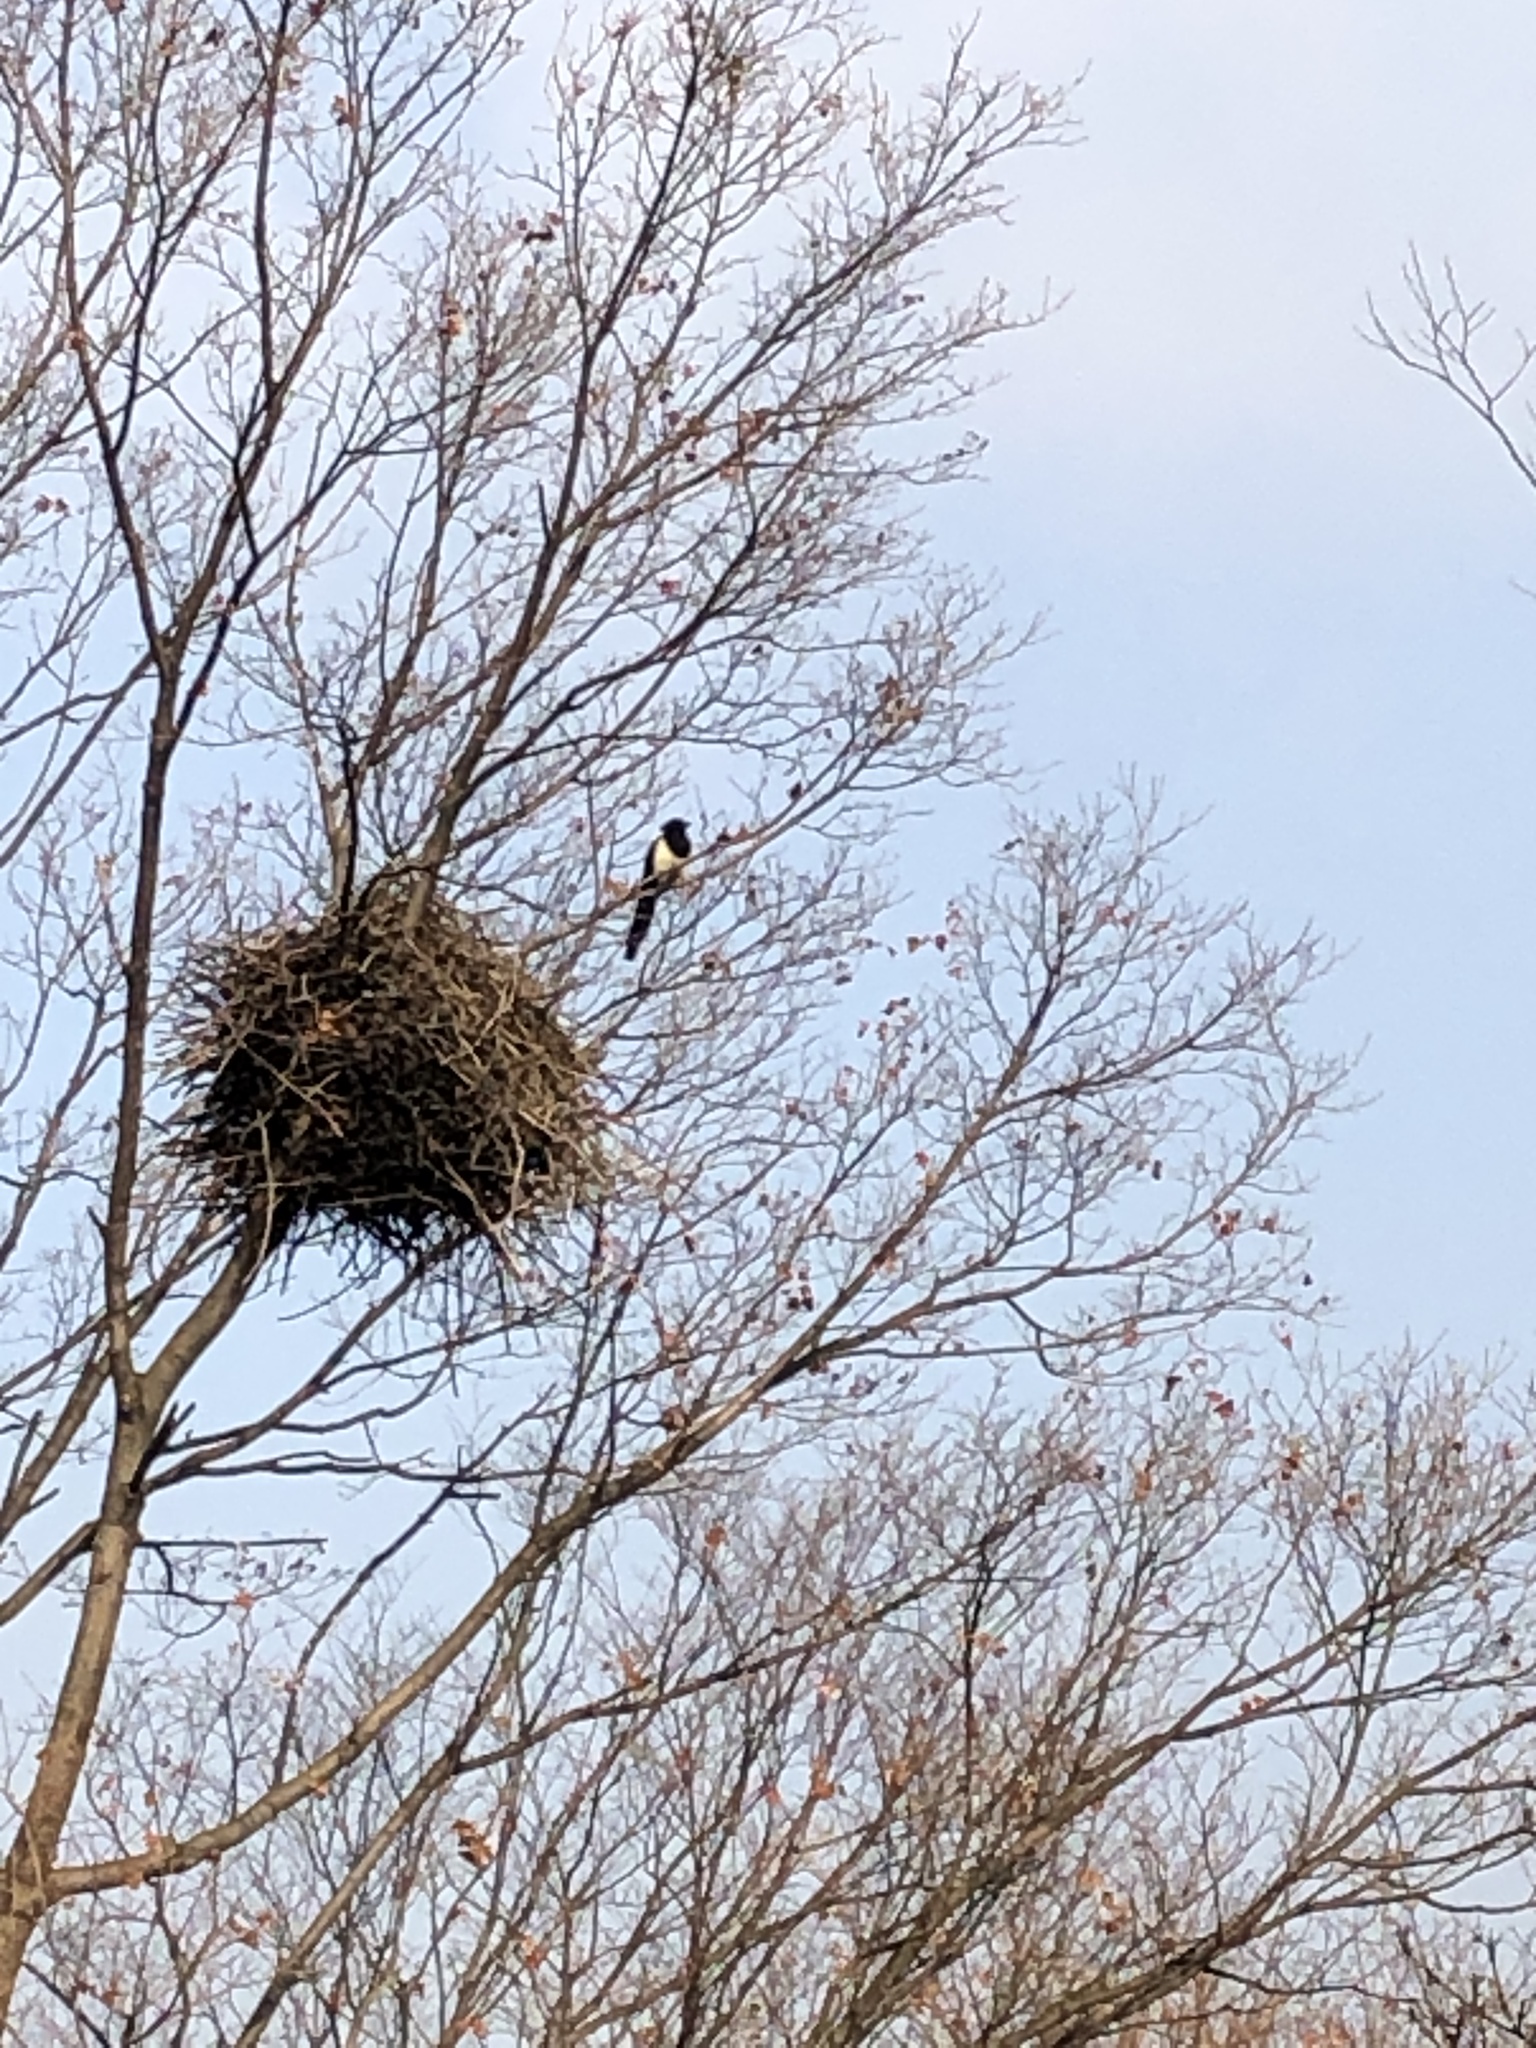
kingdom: Animalia
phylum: Chordata
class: Aves
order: Passeriformes
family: Corvidae
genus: Pica
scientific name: Pica serica
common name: Oriental magpie
